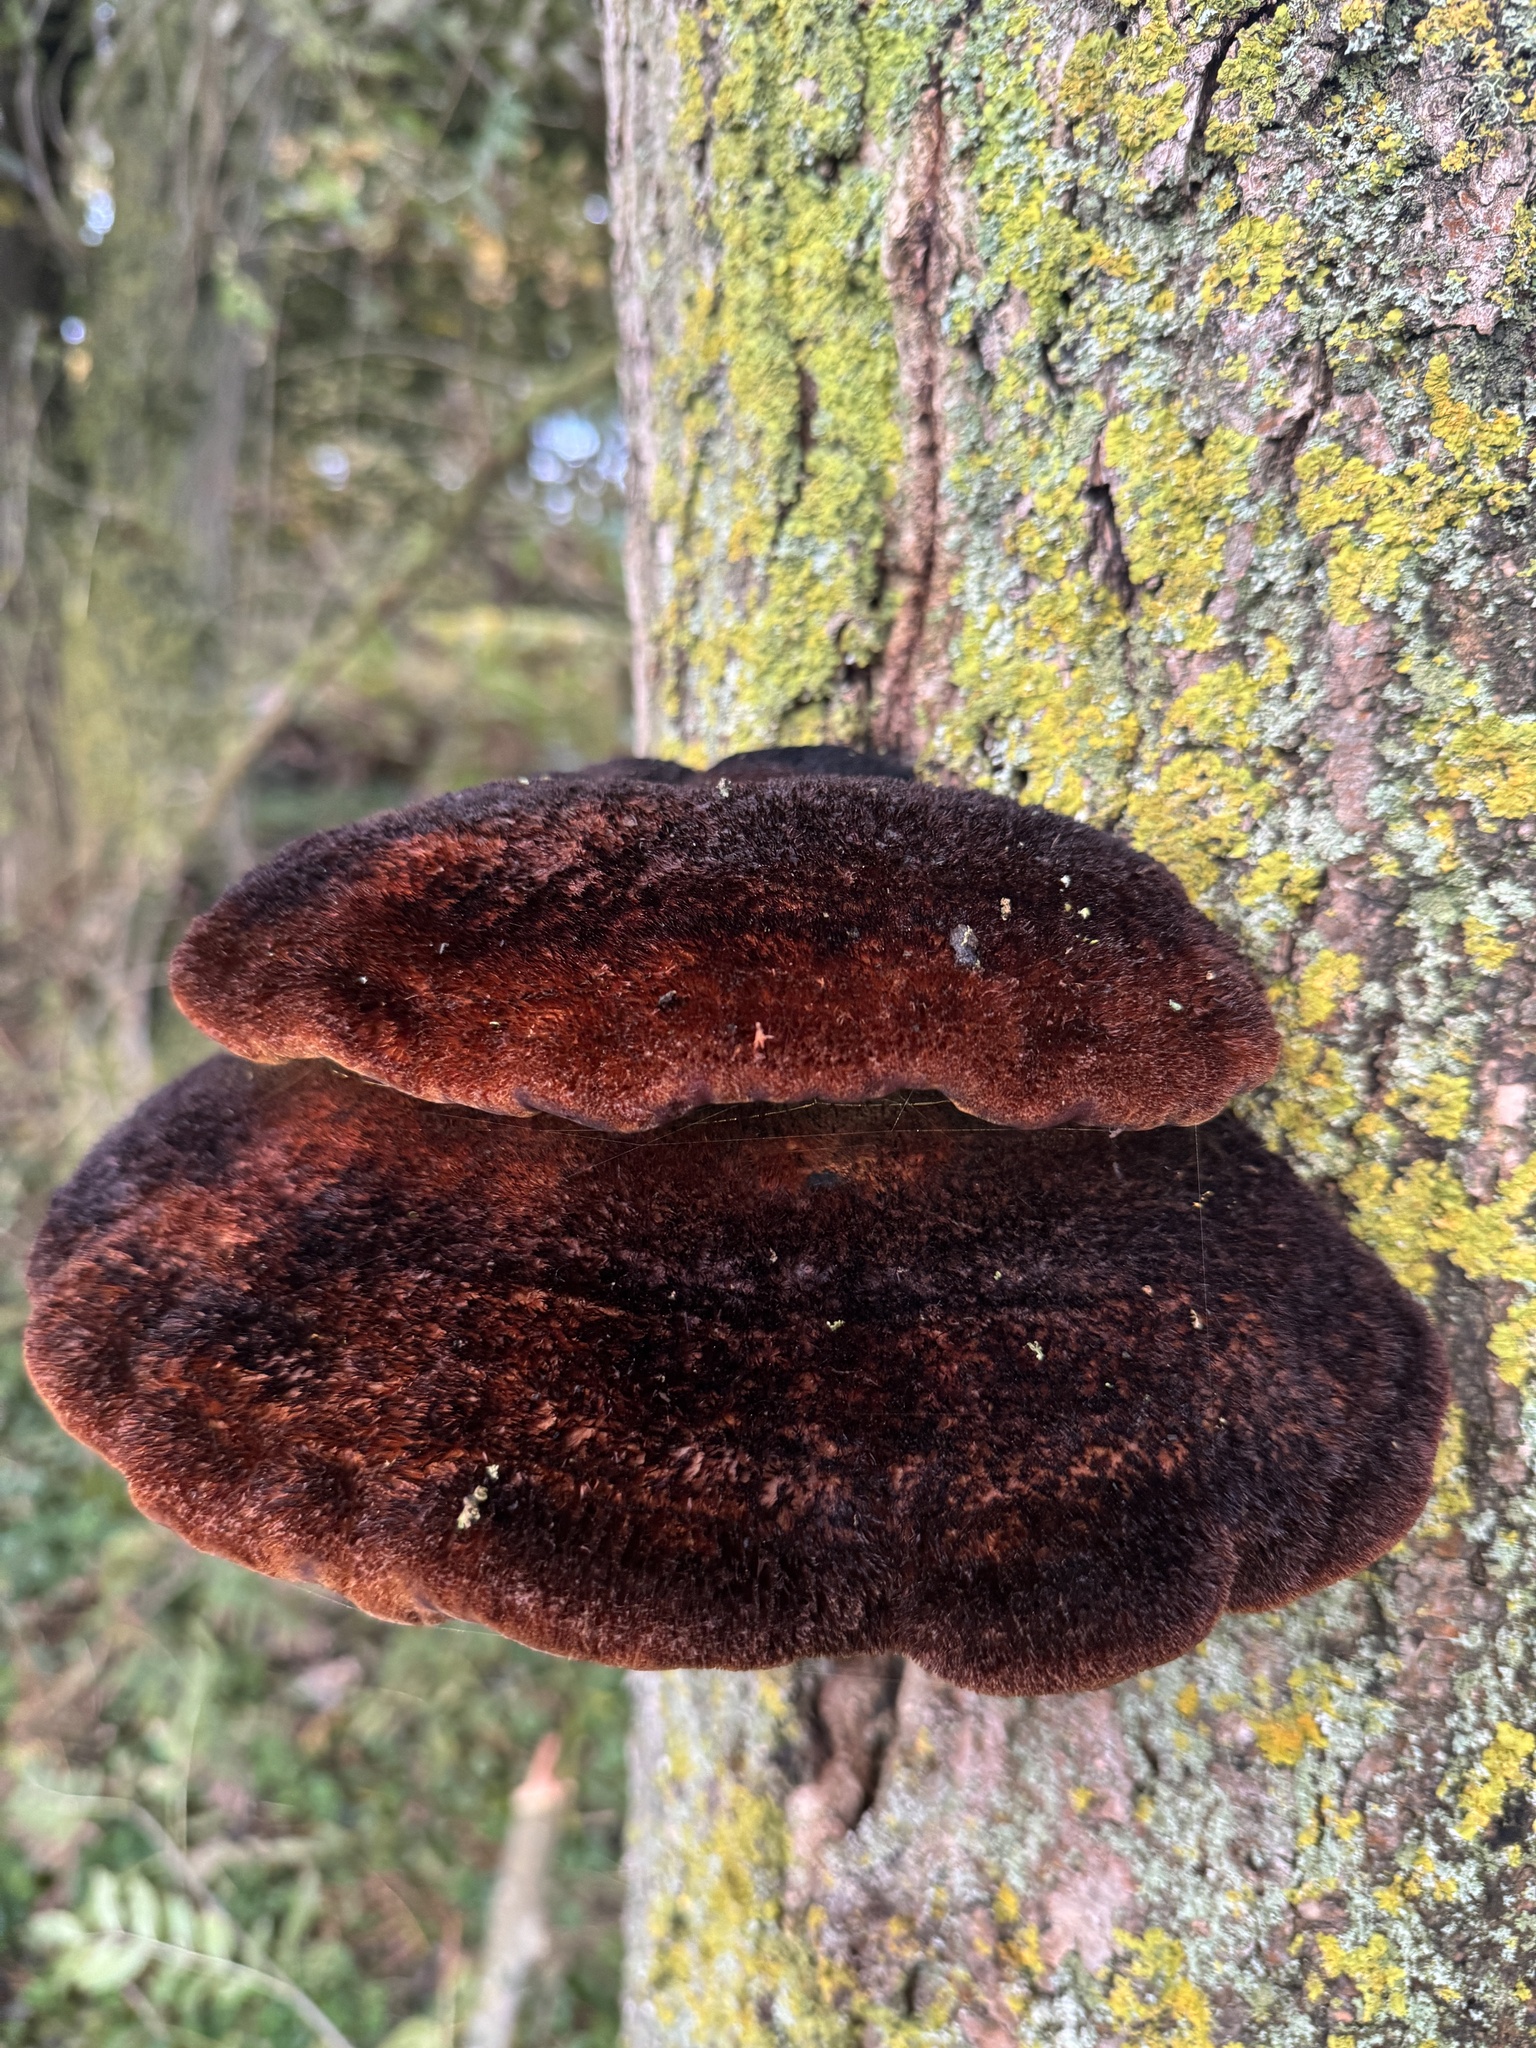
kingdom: Fungi
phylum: Basidiomycota
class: Agaricomycetes
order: Hymenochaetales
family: Hymenochaetaceae
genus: Inonotus
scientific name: Inonotus hispidus
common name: Shaggy bracket
